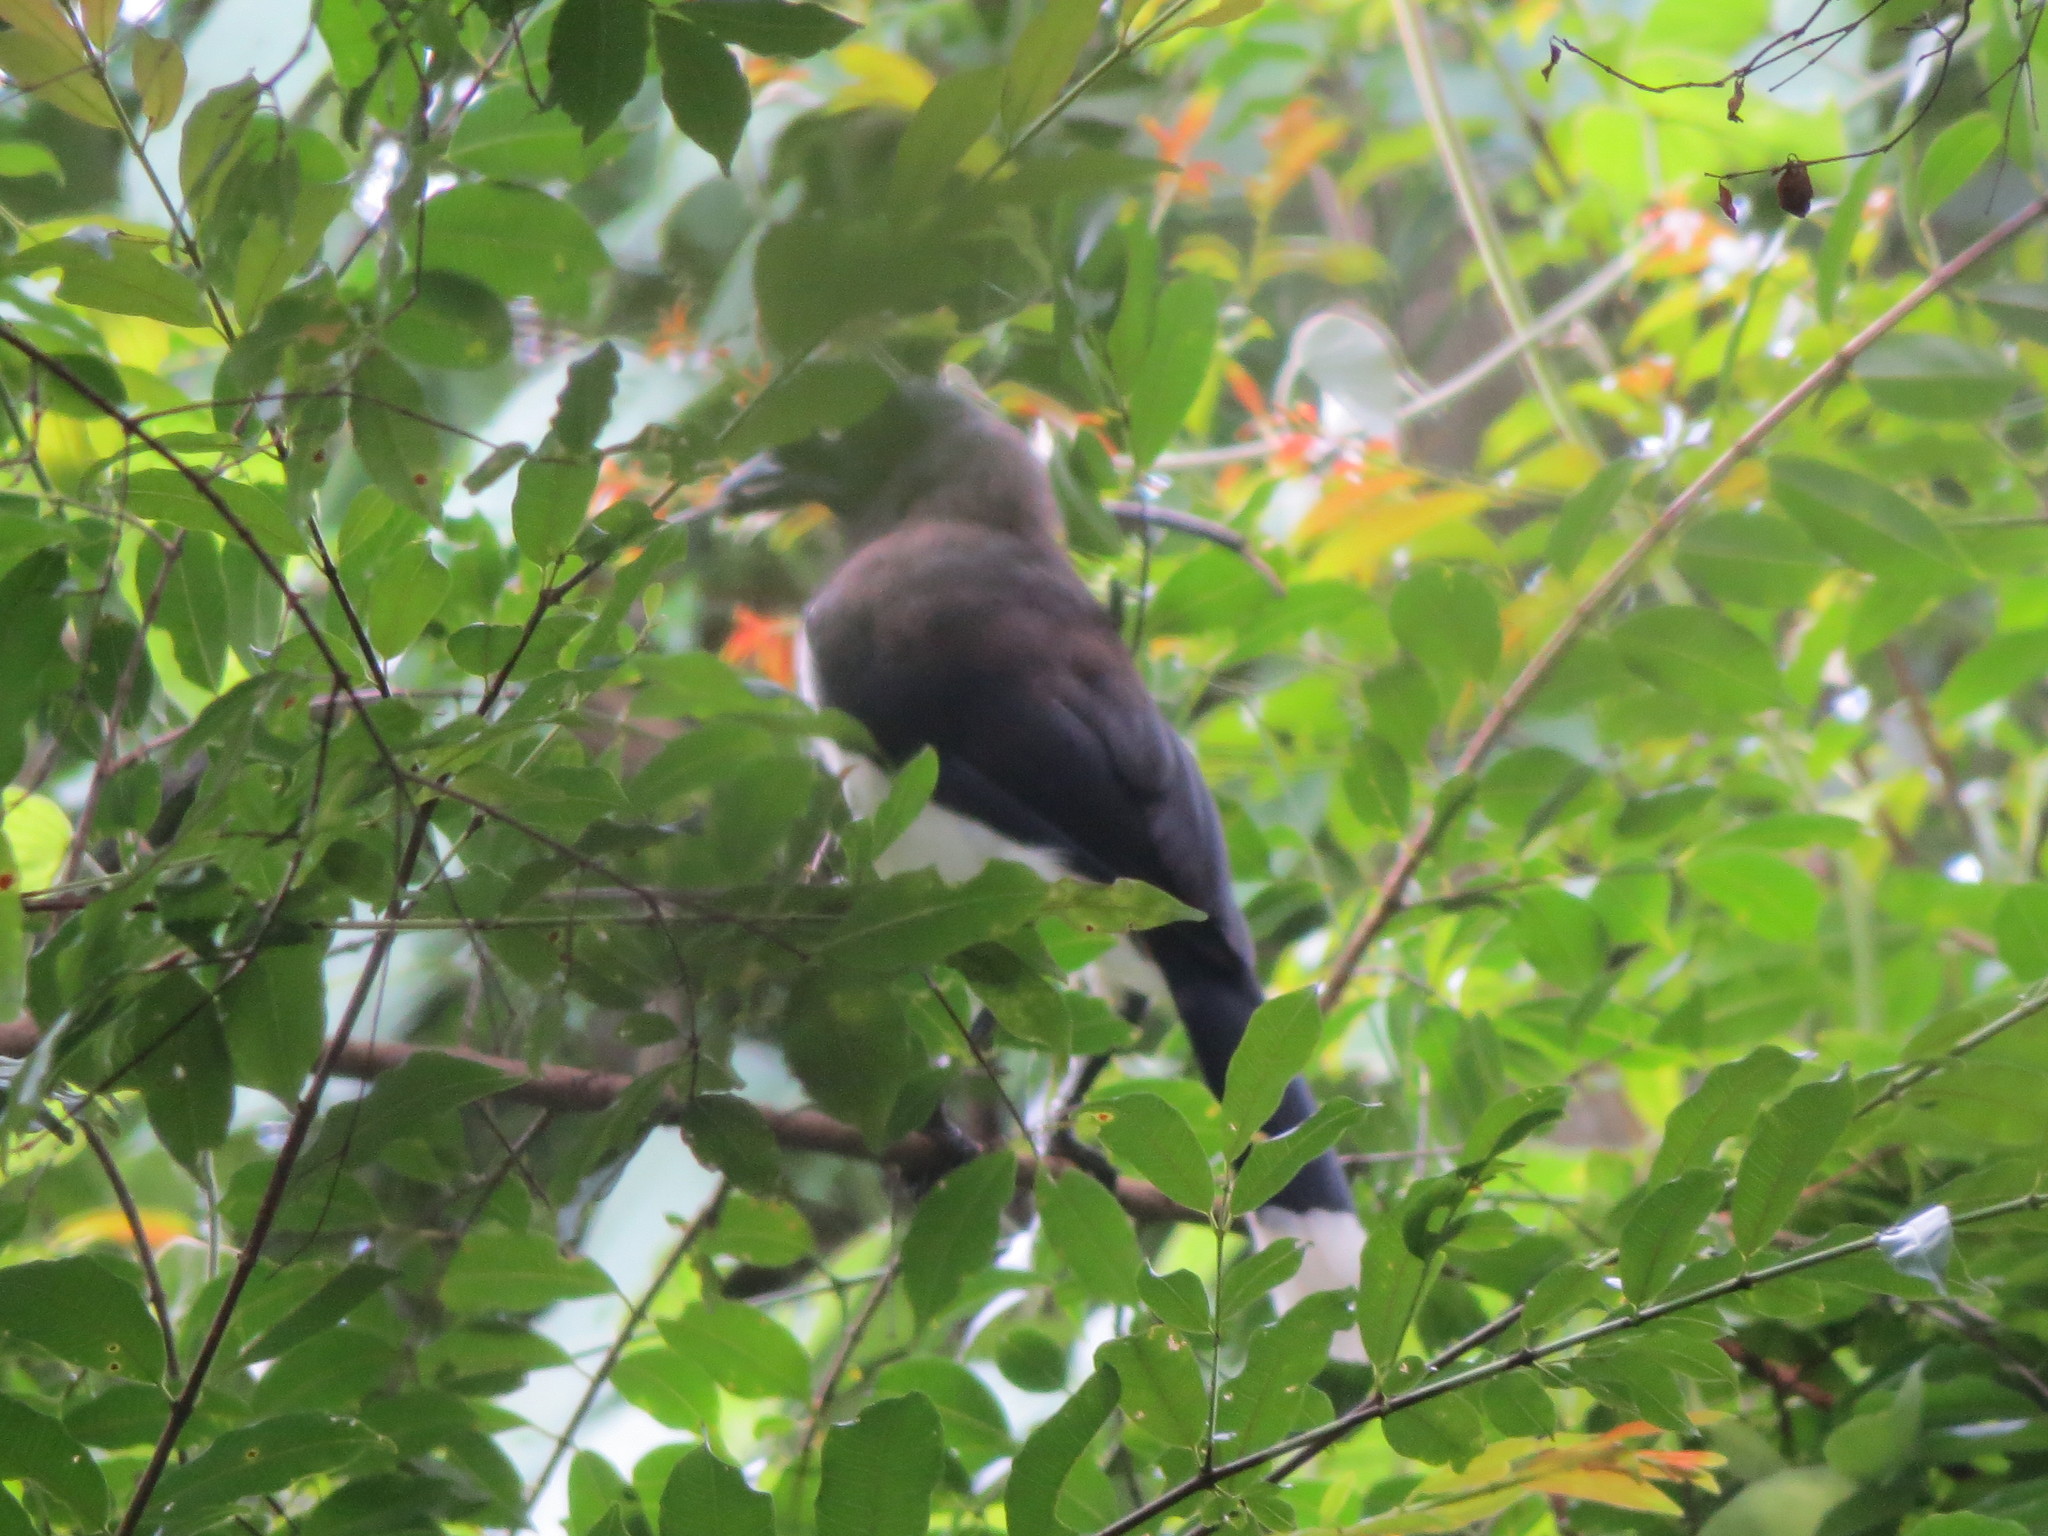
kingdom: Animalia
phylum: Chordata
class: Aves
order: Passeriformes
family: Corvidae
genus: Cyanocorax
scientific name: Cyanocorax affinis
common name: Black-chested jay
